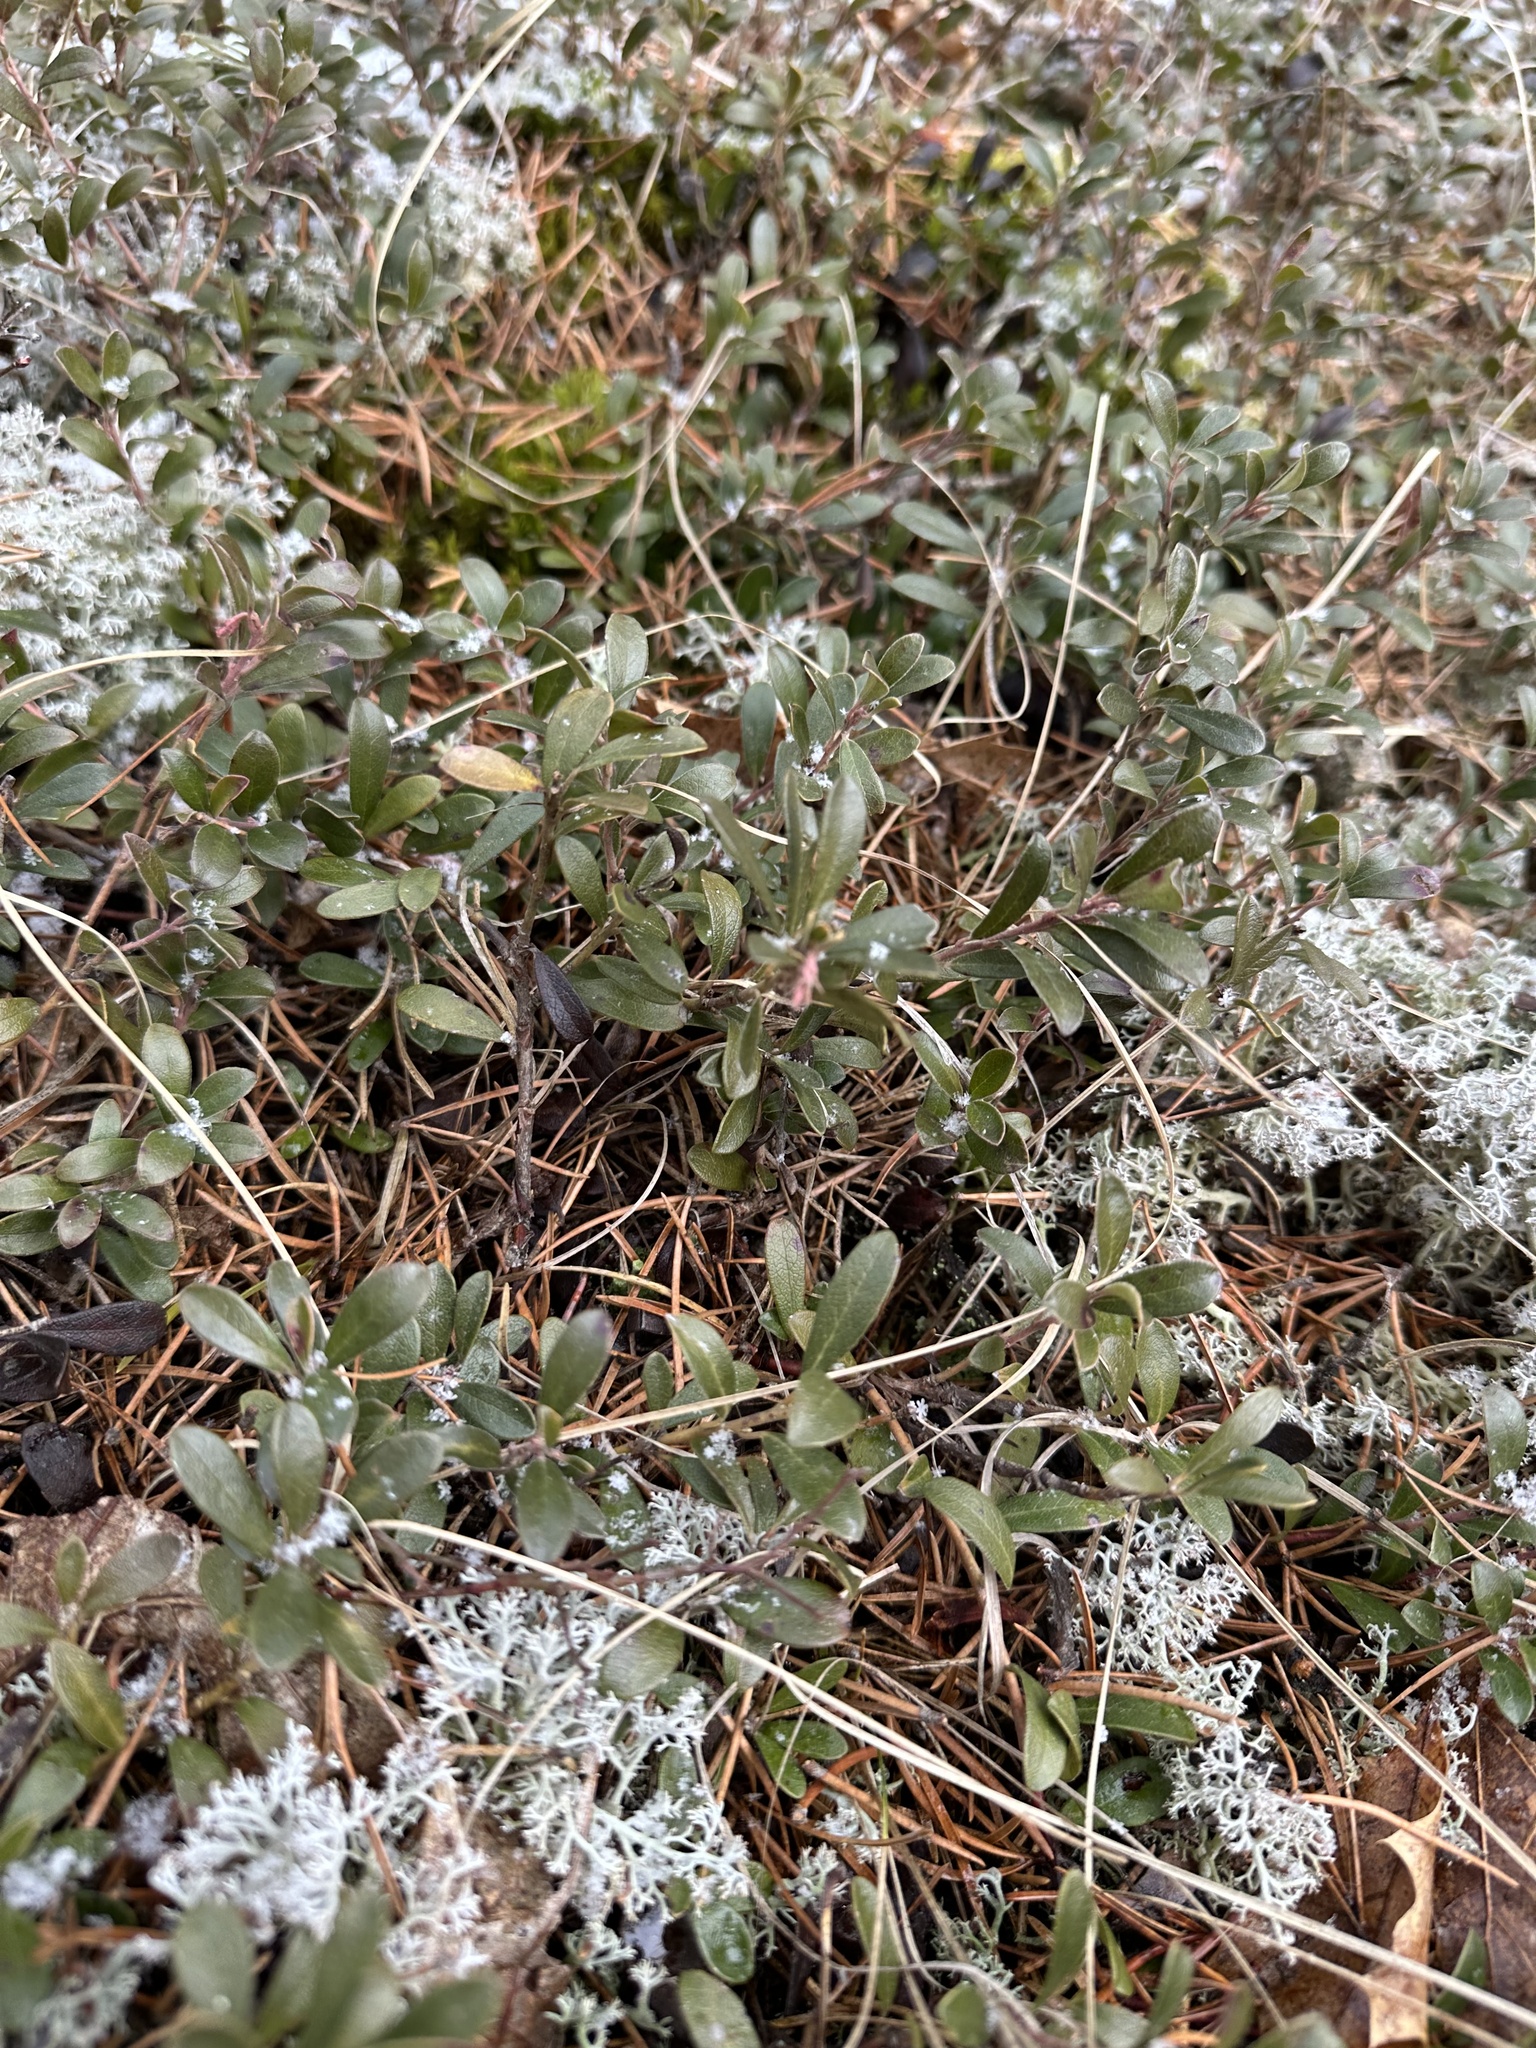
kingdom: Plantae
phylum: Tracheophyta
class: Magnoliopsida
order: Ericales
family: Ericaceae
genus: Arctostaphylos
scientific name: Arctostaphylos uva-ursi
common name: Bearberry
